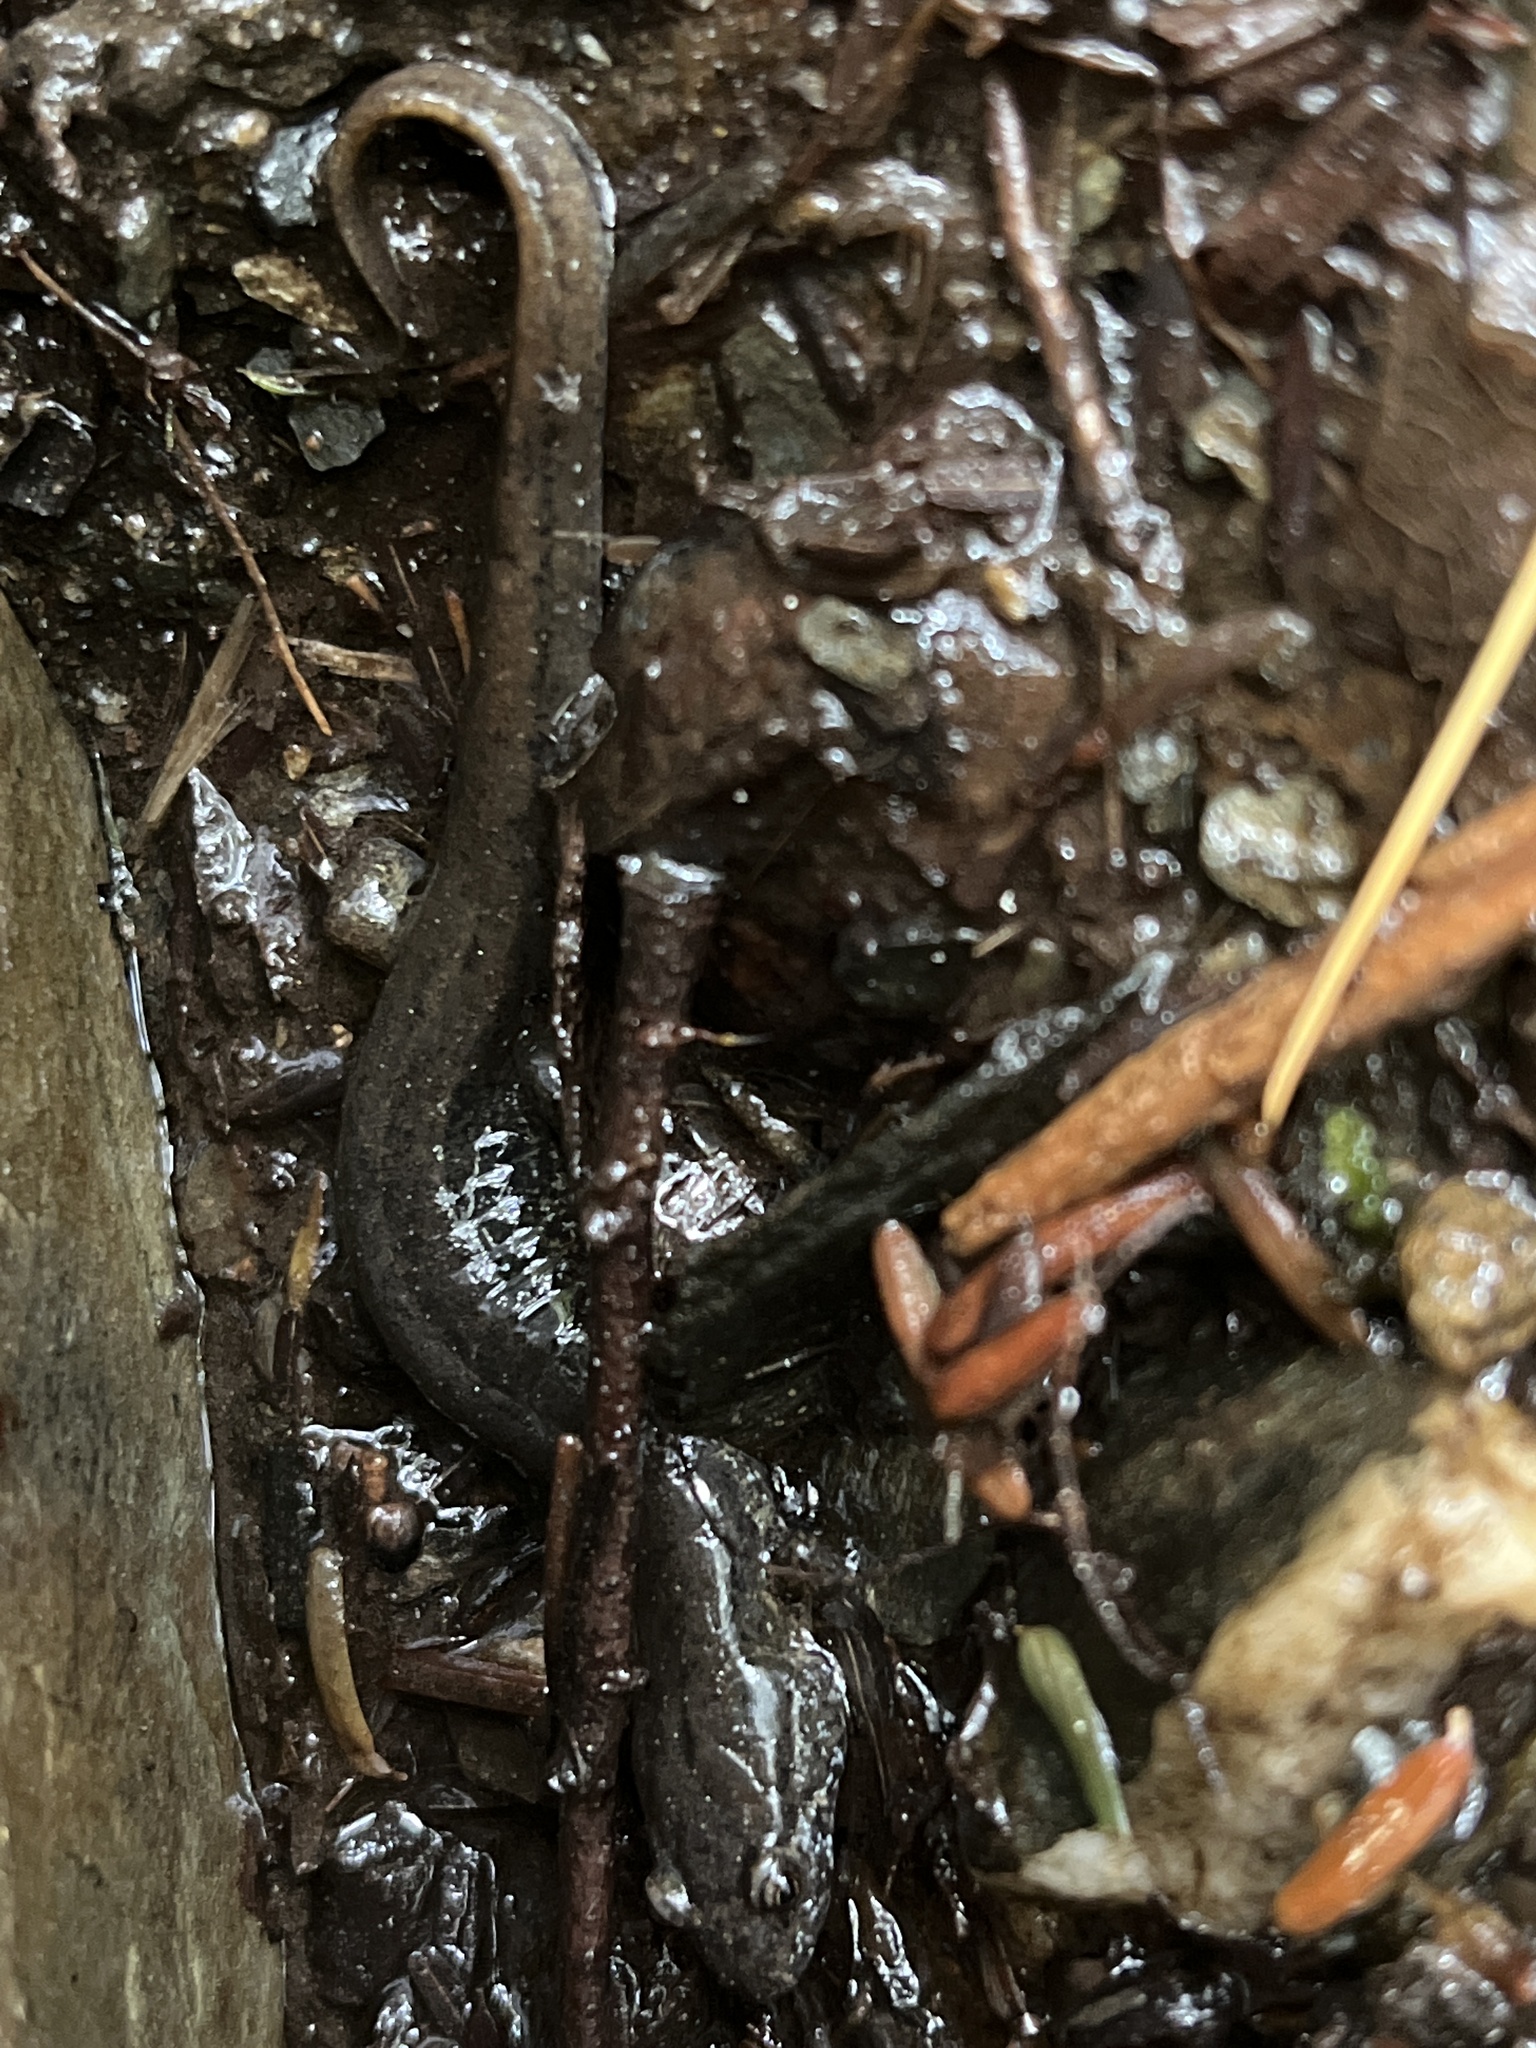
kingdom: Animalia
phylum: Chordata
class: Amphibia
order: Caudata
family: Plethodontidae
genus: Desmognathus
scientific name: Desmognathus fuscus
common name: Northern dusky salamander
